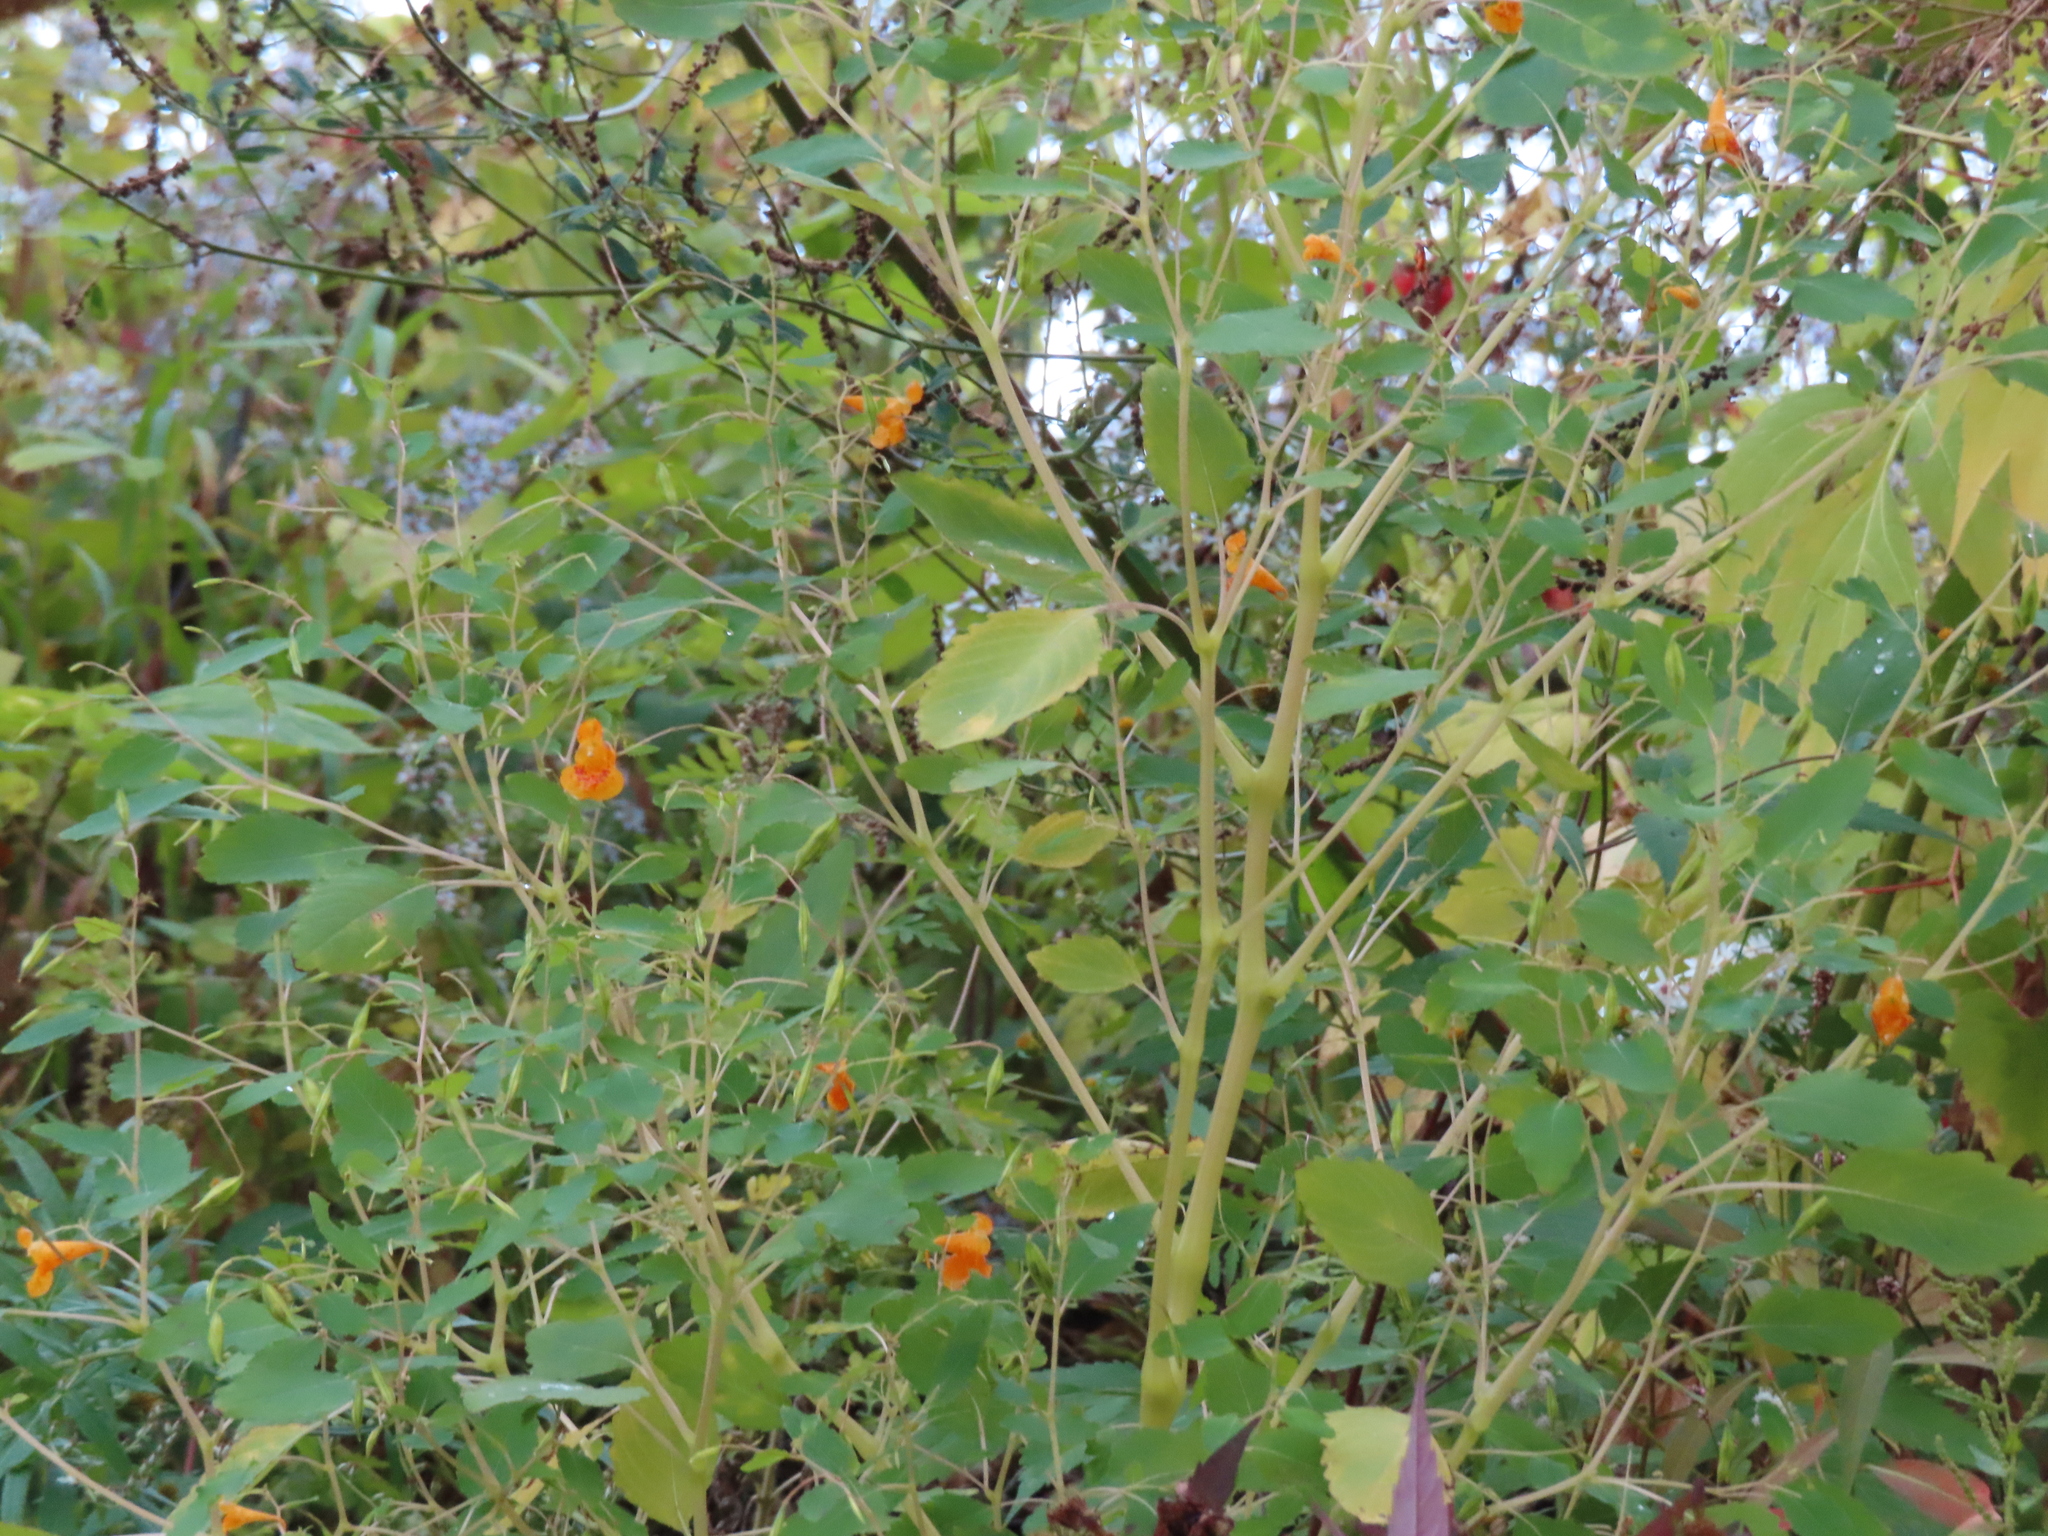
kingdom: Plantae
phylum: Tracheophyta
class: Magnoliopsida
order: Ericales
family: Balsaminaceae
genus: Impatiens
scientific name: Impatiens capensis
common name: Orange balsam
